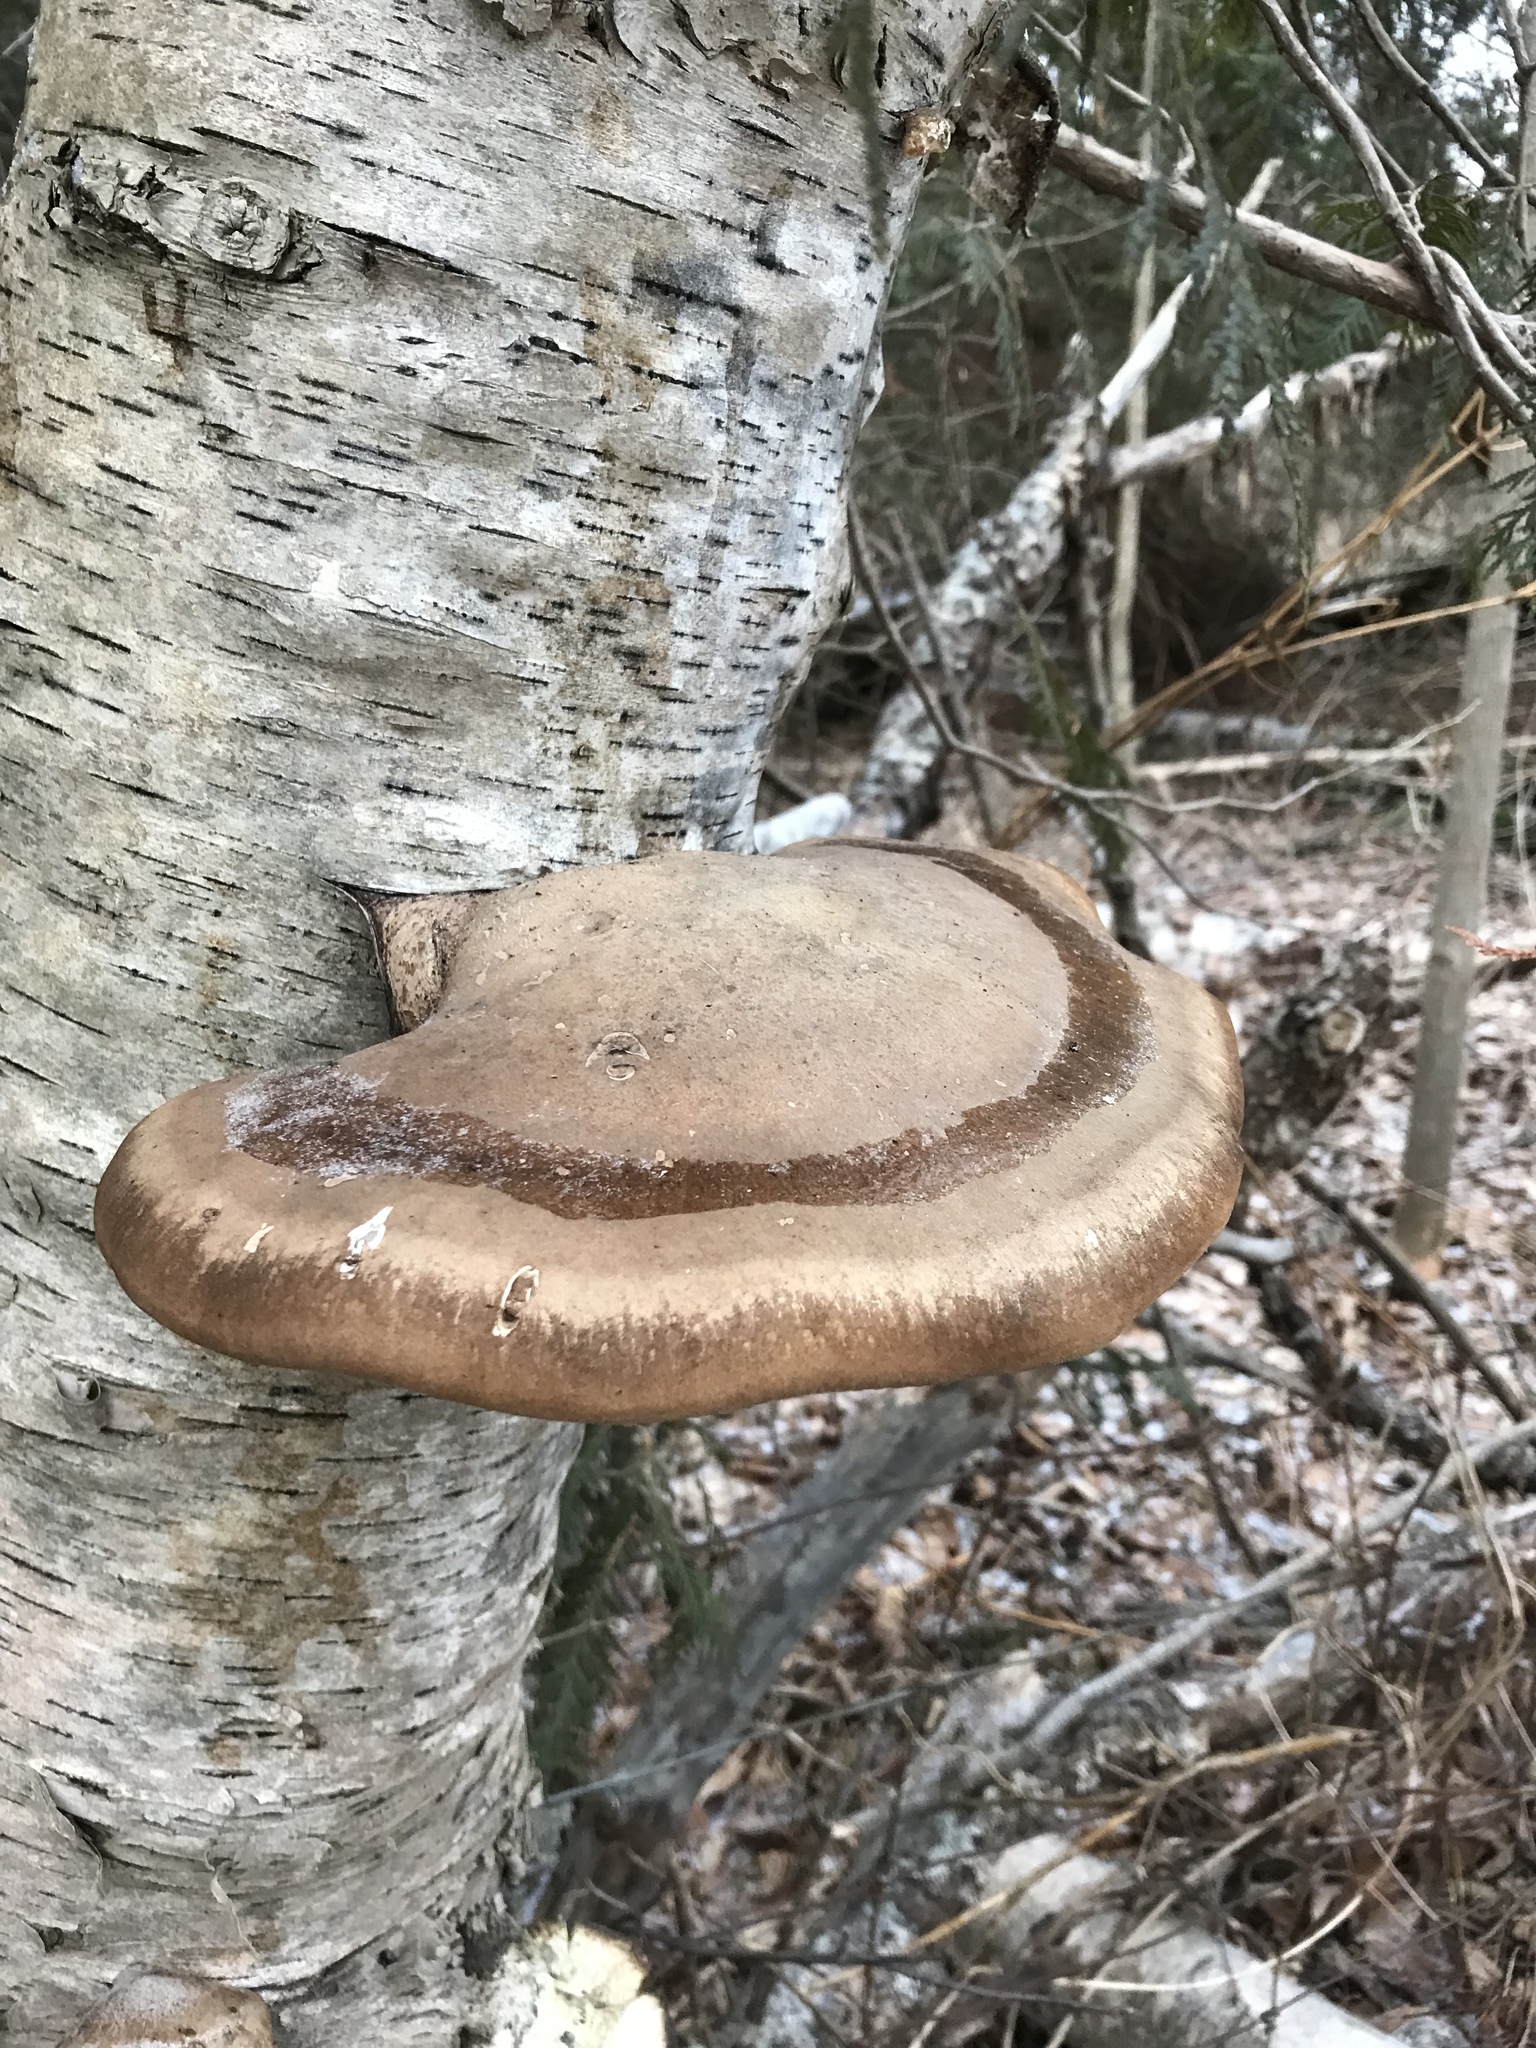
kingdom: Fungi
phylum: Basidiomycota
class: Agaricomycetes
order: Polyporales
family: Fomitopsidaceae
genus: Fomitopsis
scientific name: Fomitopsis betulina
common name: Birch polypore
